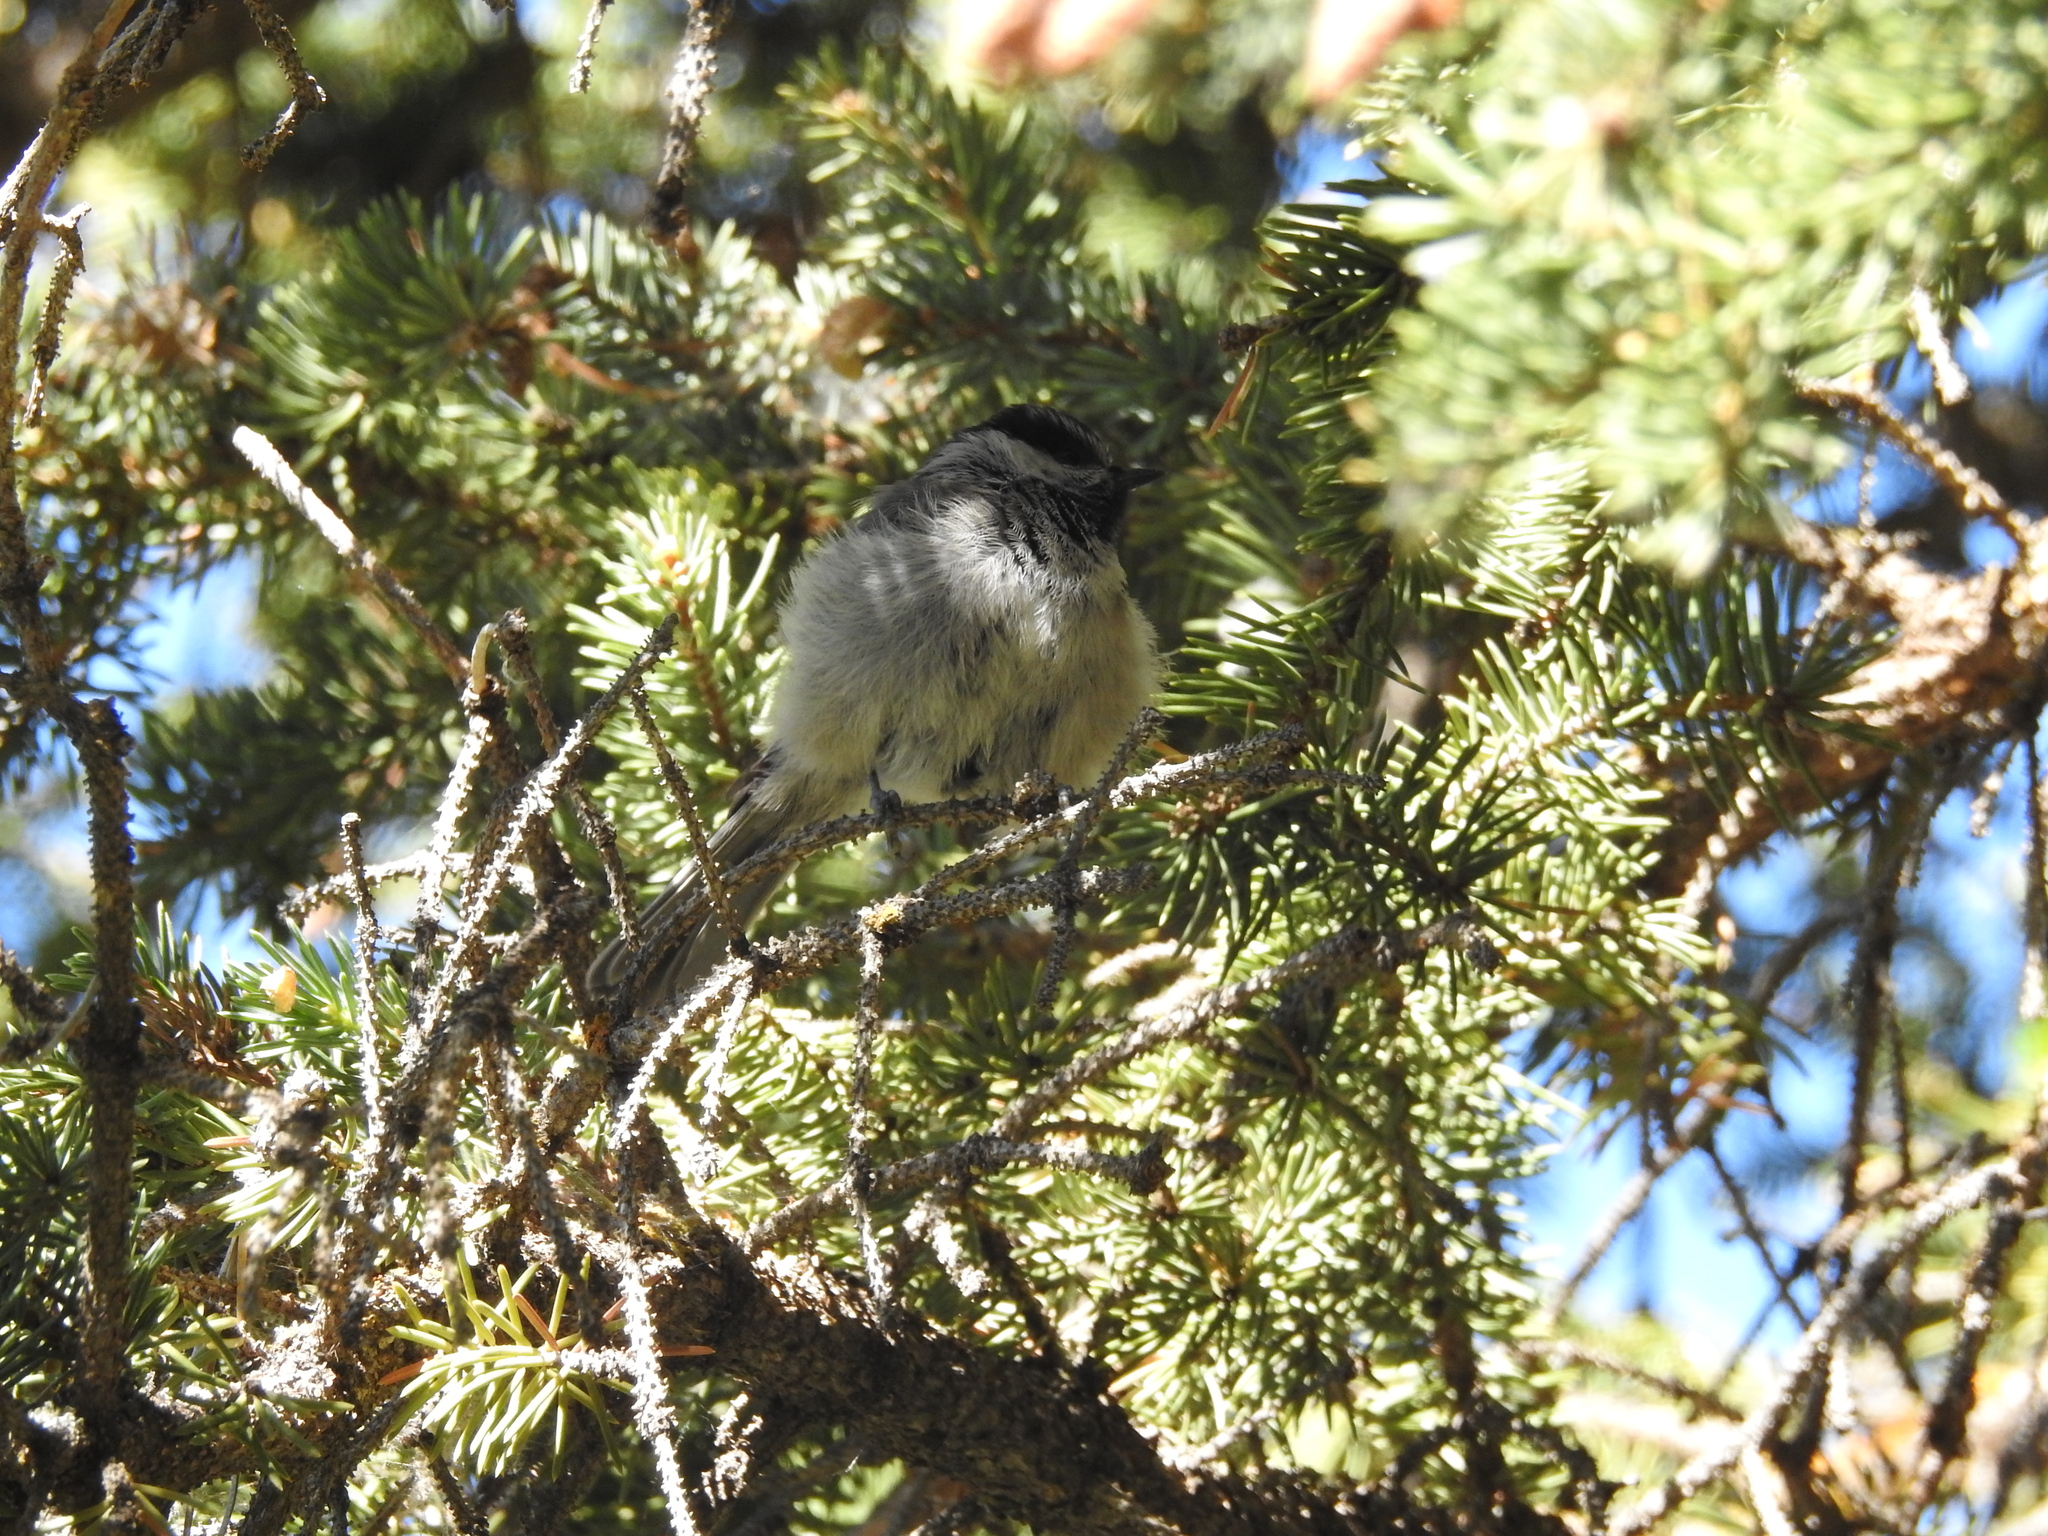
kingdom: Animalia
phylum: Chordata
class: Aves
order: Passeriformes
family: Paridae
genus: Poecile
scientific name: Poecile gambeli
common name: Mountain chickadee
